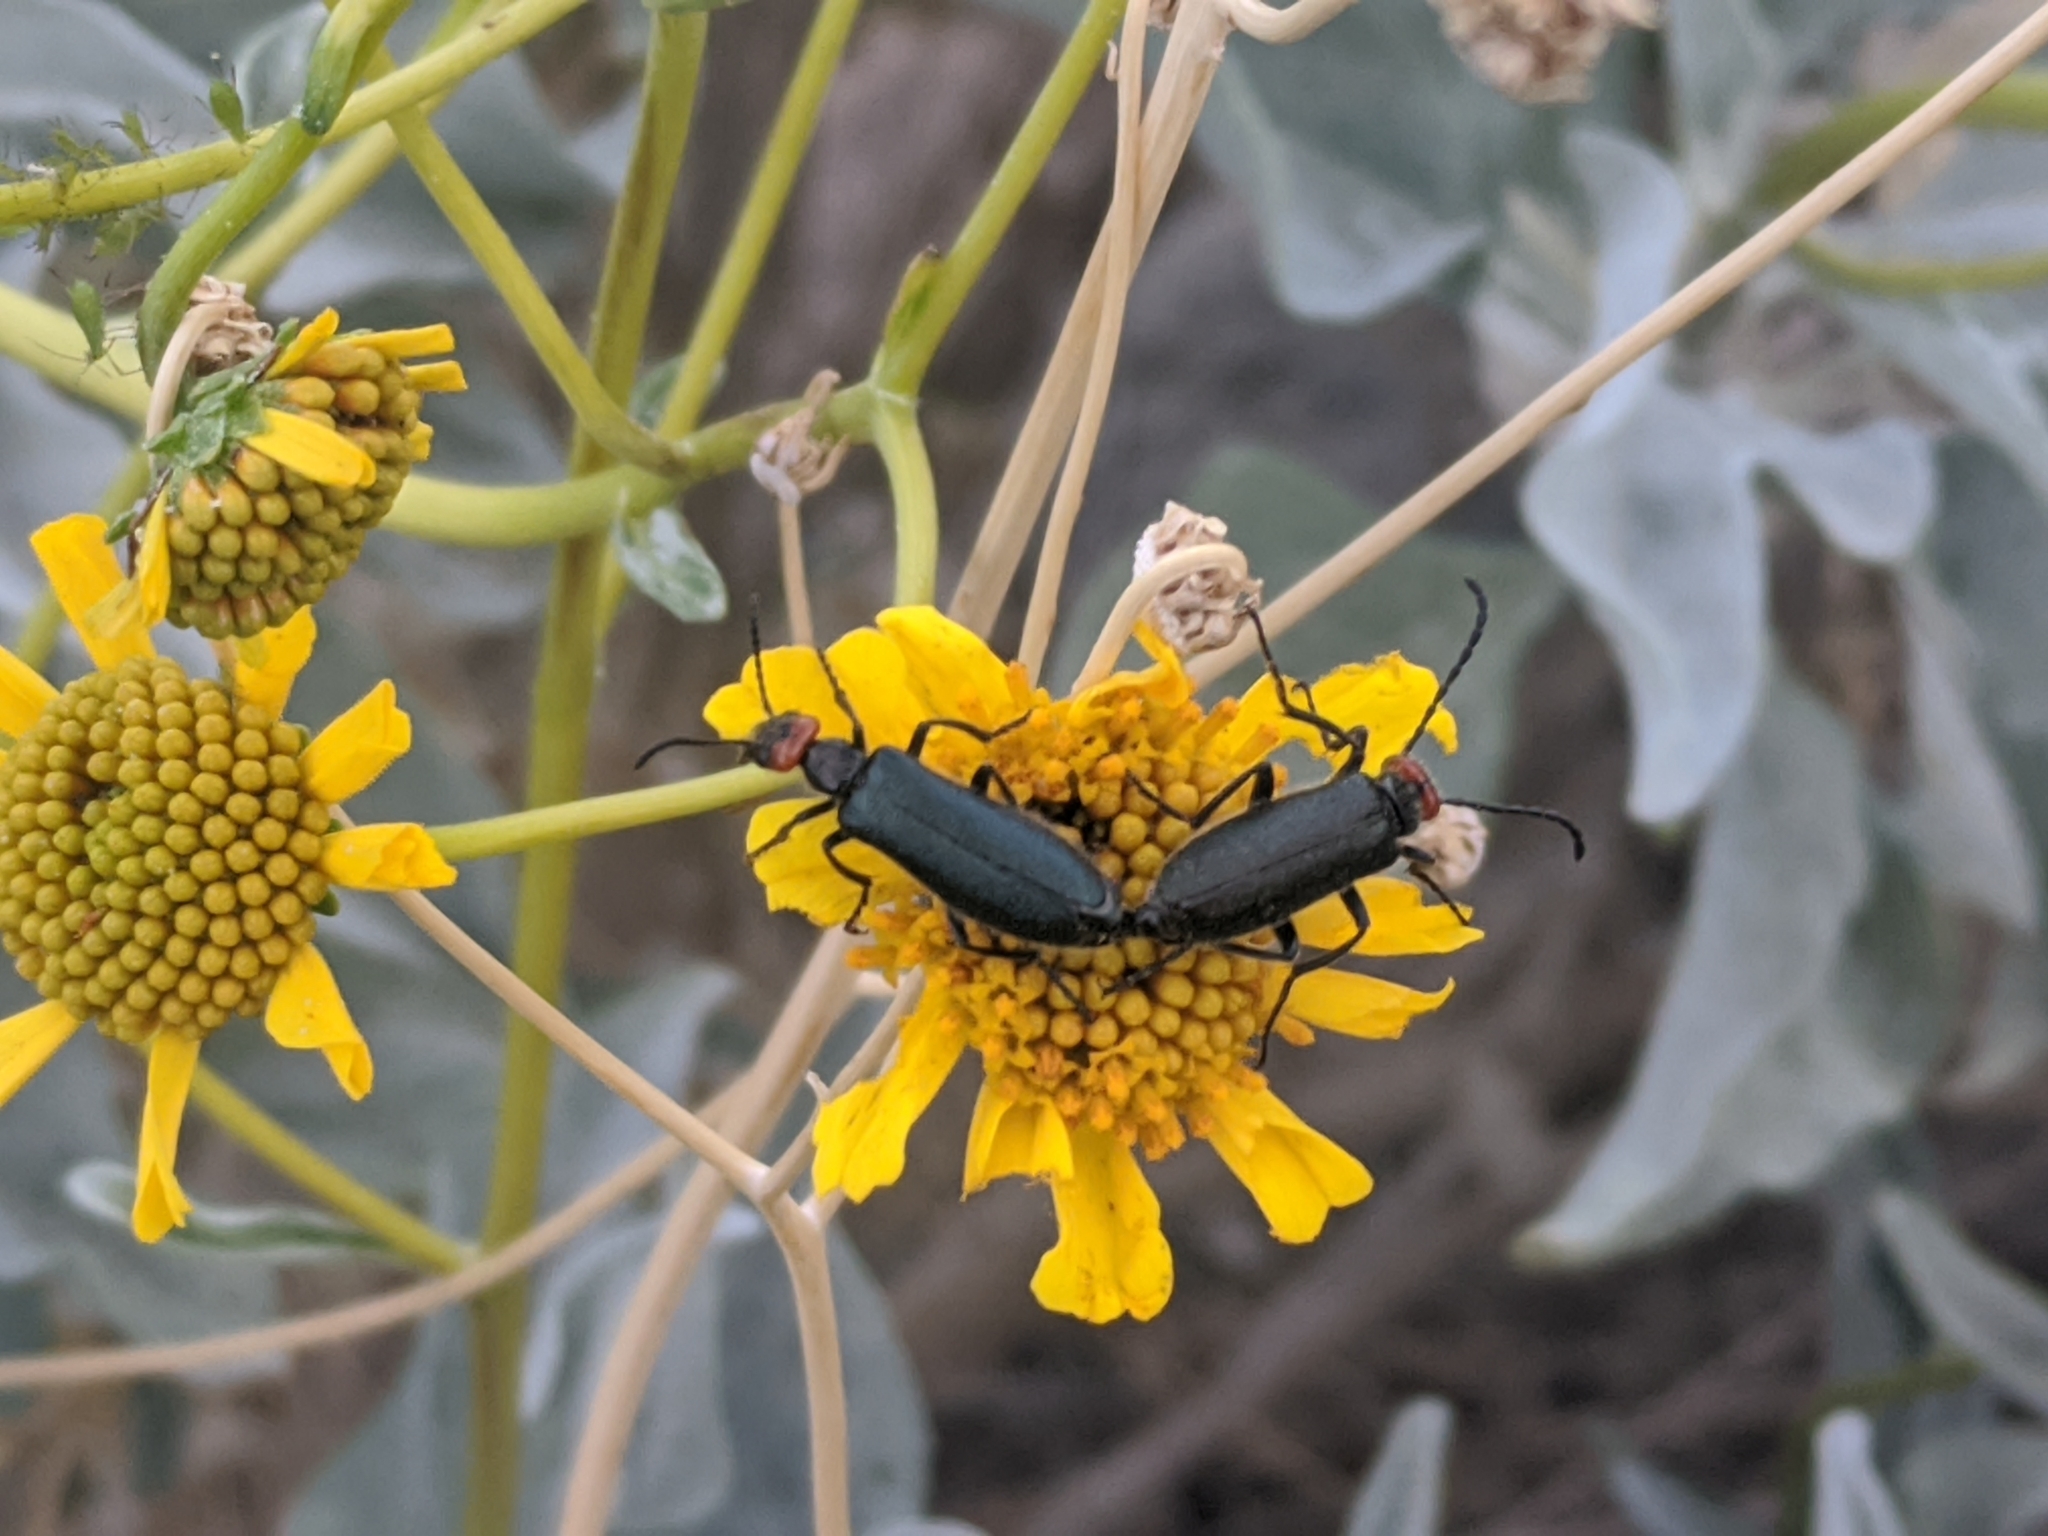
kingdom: Animalia
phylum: Arthropoda
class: Insecta
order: Coleoptera
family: Meloidae
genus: Lytta
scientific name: Lytta auriculata
